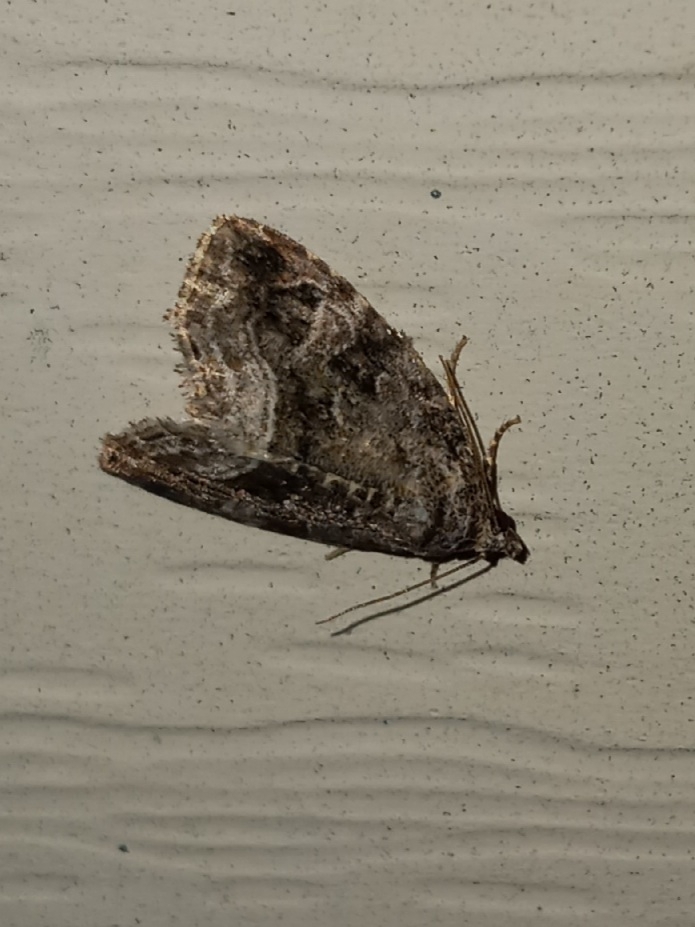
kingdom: Animalia
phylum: Arthropoda
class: Insecta
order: Lepidoptera
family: Noctuidae
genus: Protodeltote
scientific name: Protodeltote muscosula
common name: Large mossy glyph
